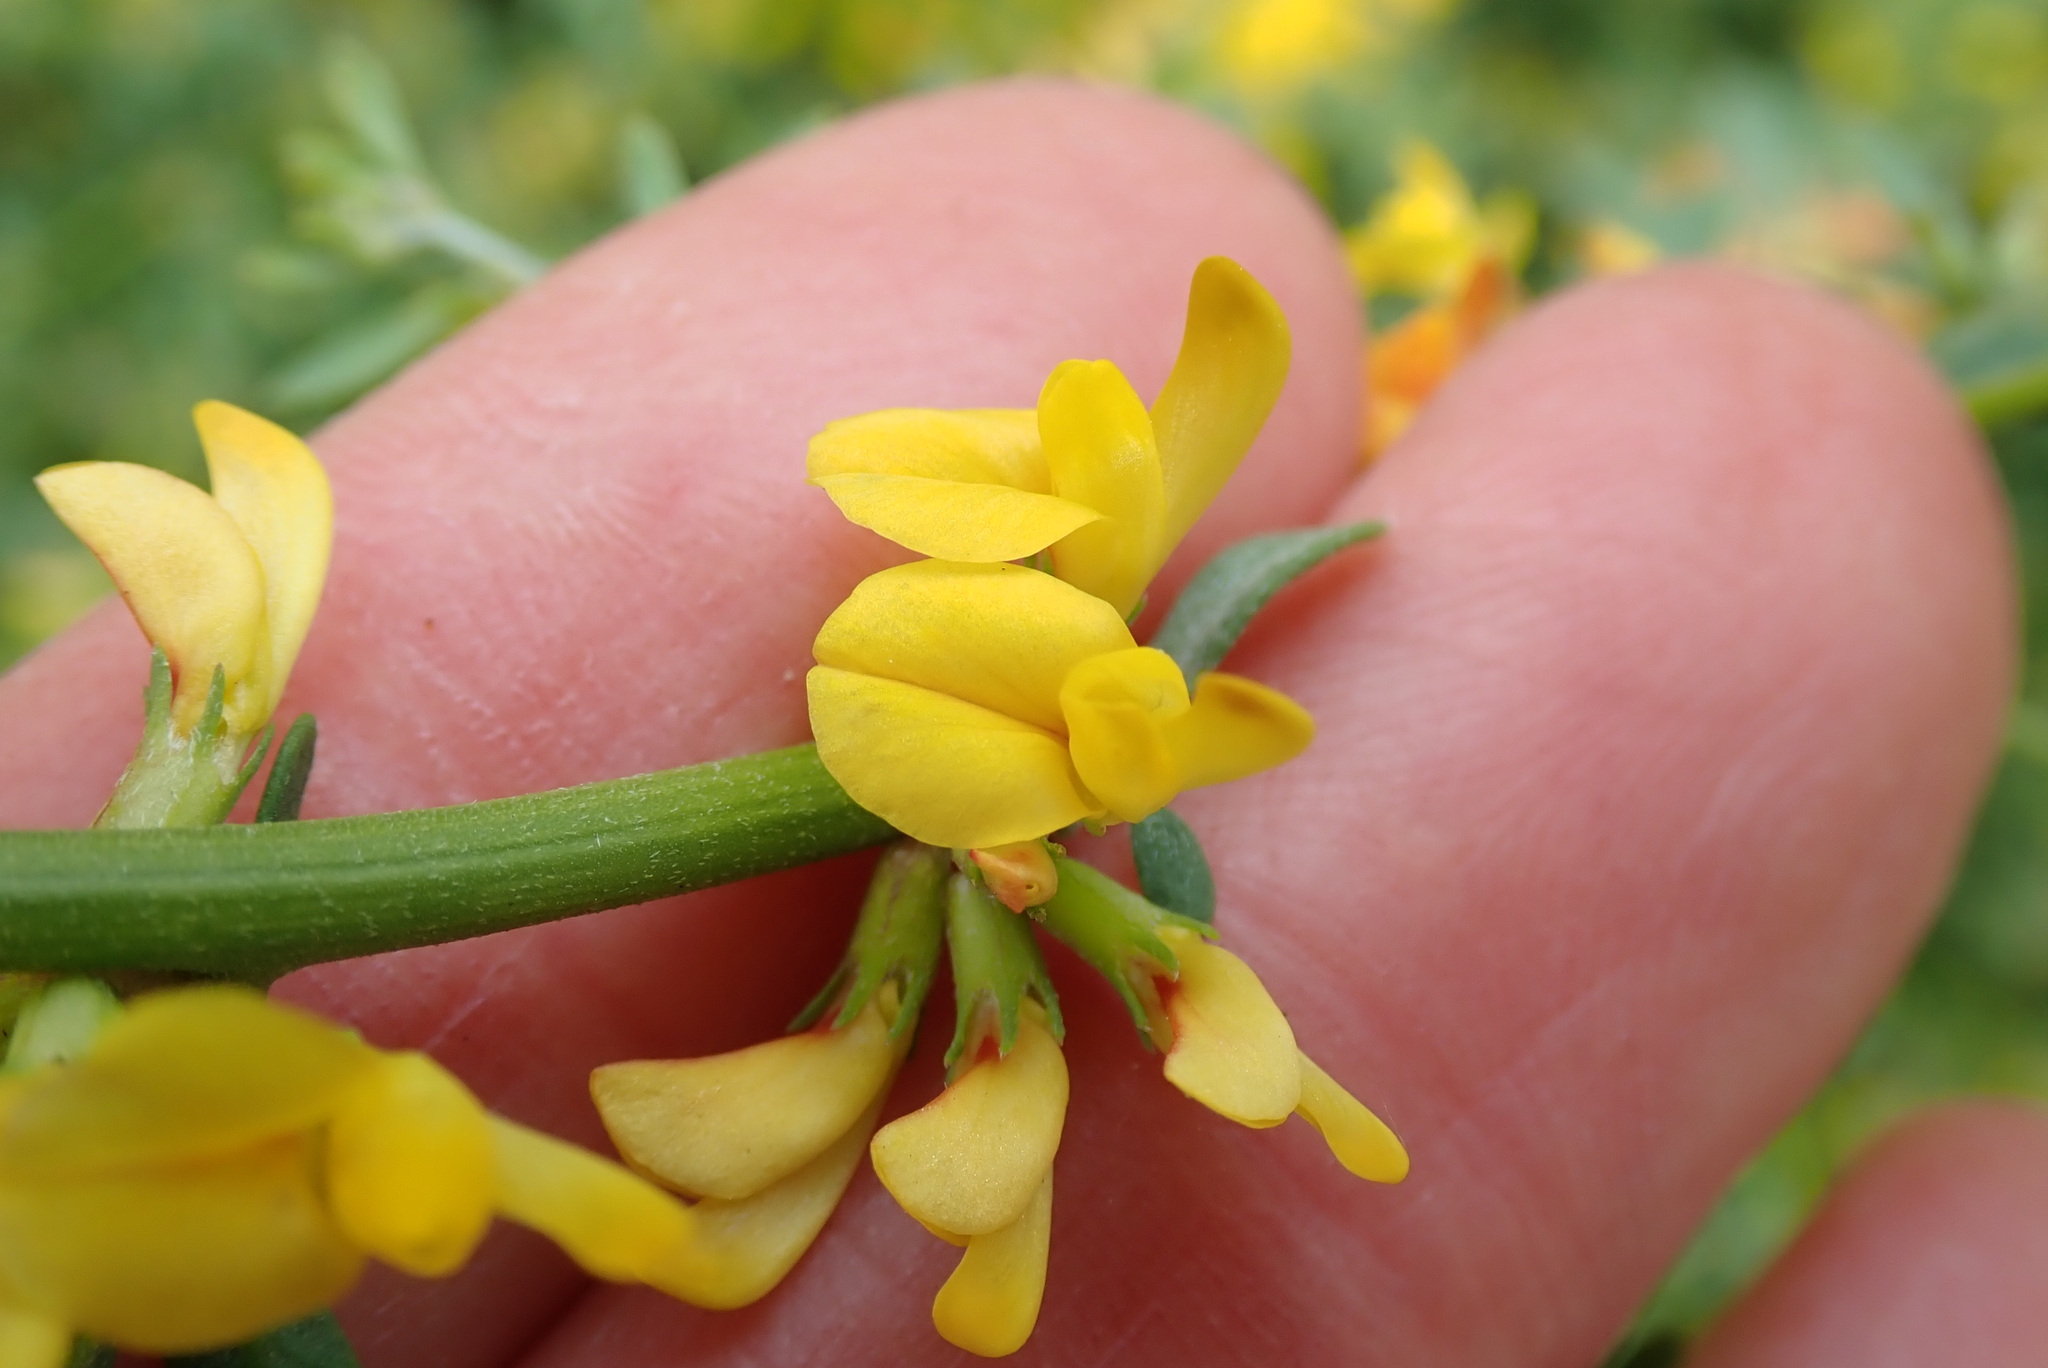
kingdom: Plantae
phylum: Tracheophyta
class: Magnoliopsida
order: Fabales
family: Fabaceae
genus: Acmispon
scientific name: Acmispon glaber
